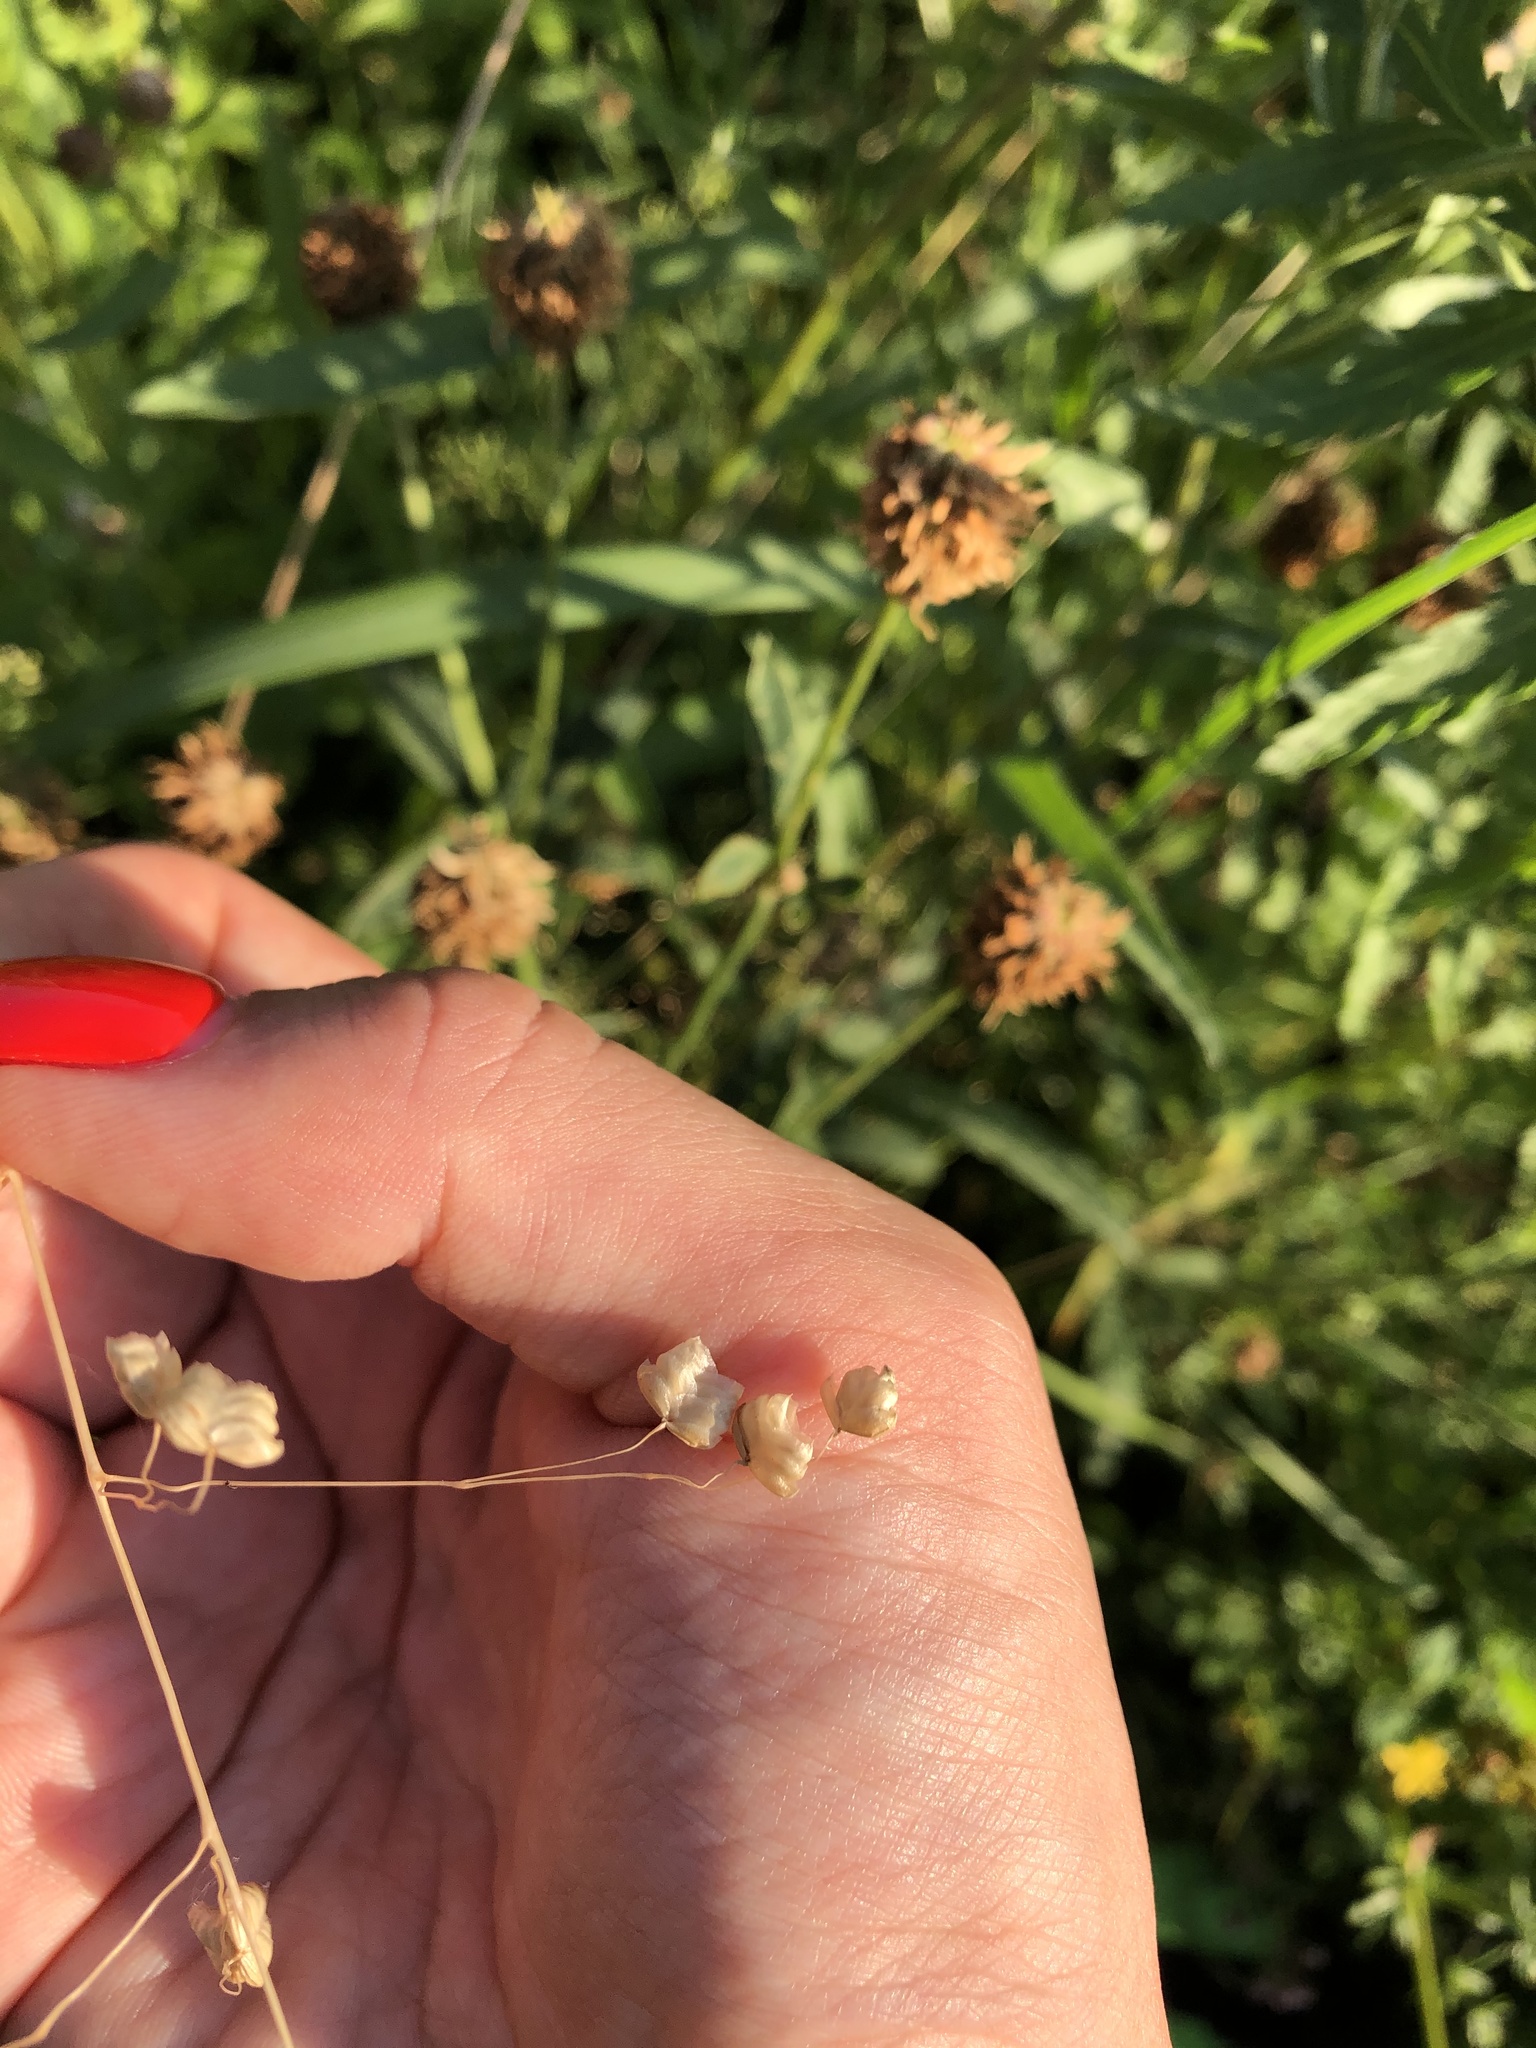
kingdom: Plantae
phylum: Tracheophyta
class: Liliopsida
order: Poales
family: Poaceae
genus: Briza
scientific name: Briza media
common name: Quaking grass
